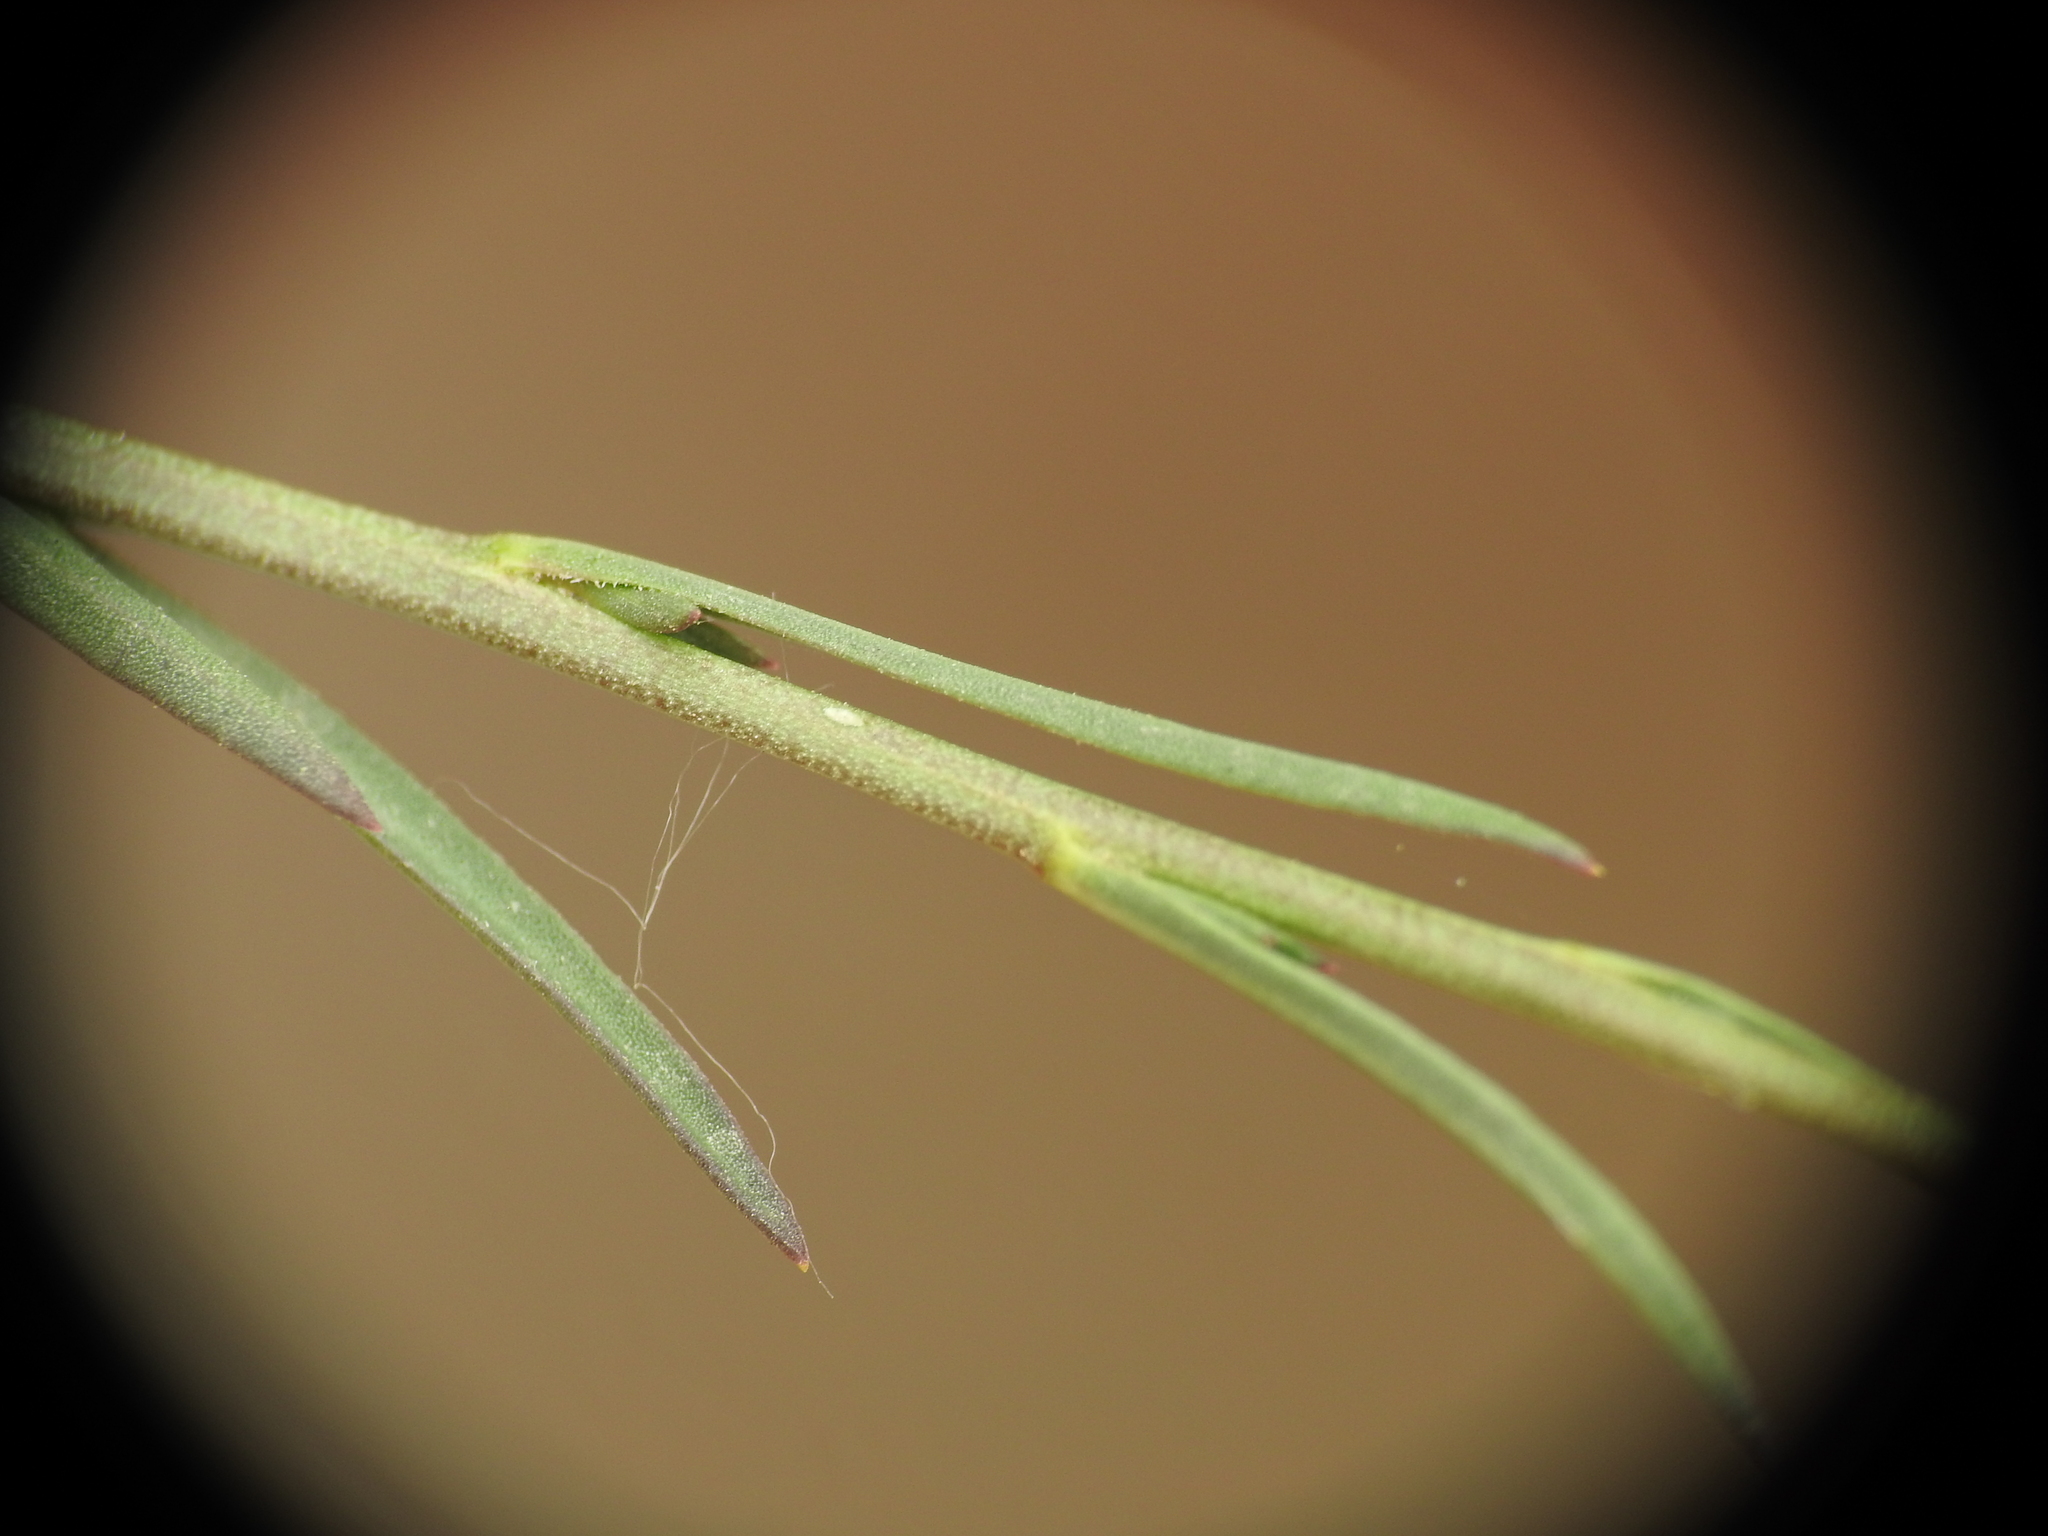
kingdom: Plantae
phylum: Tracheophyta
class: Magnoliopsida
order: Brassicales
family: Brassicaceae
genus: Lepidium
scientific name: Lepidium graminifolium
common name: Tall pepperwort
